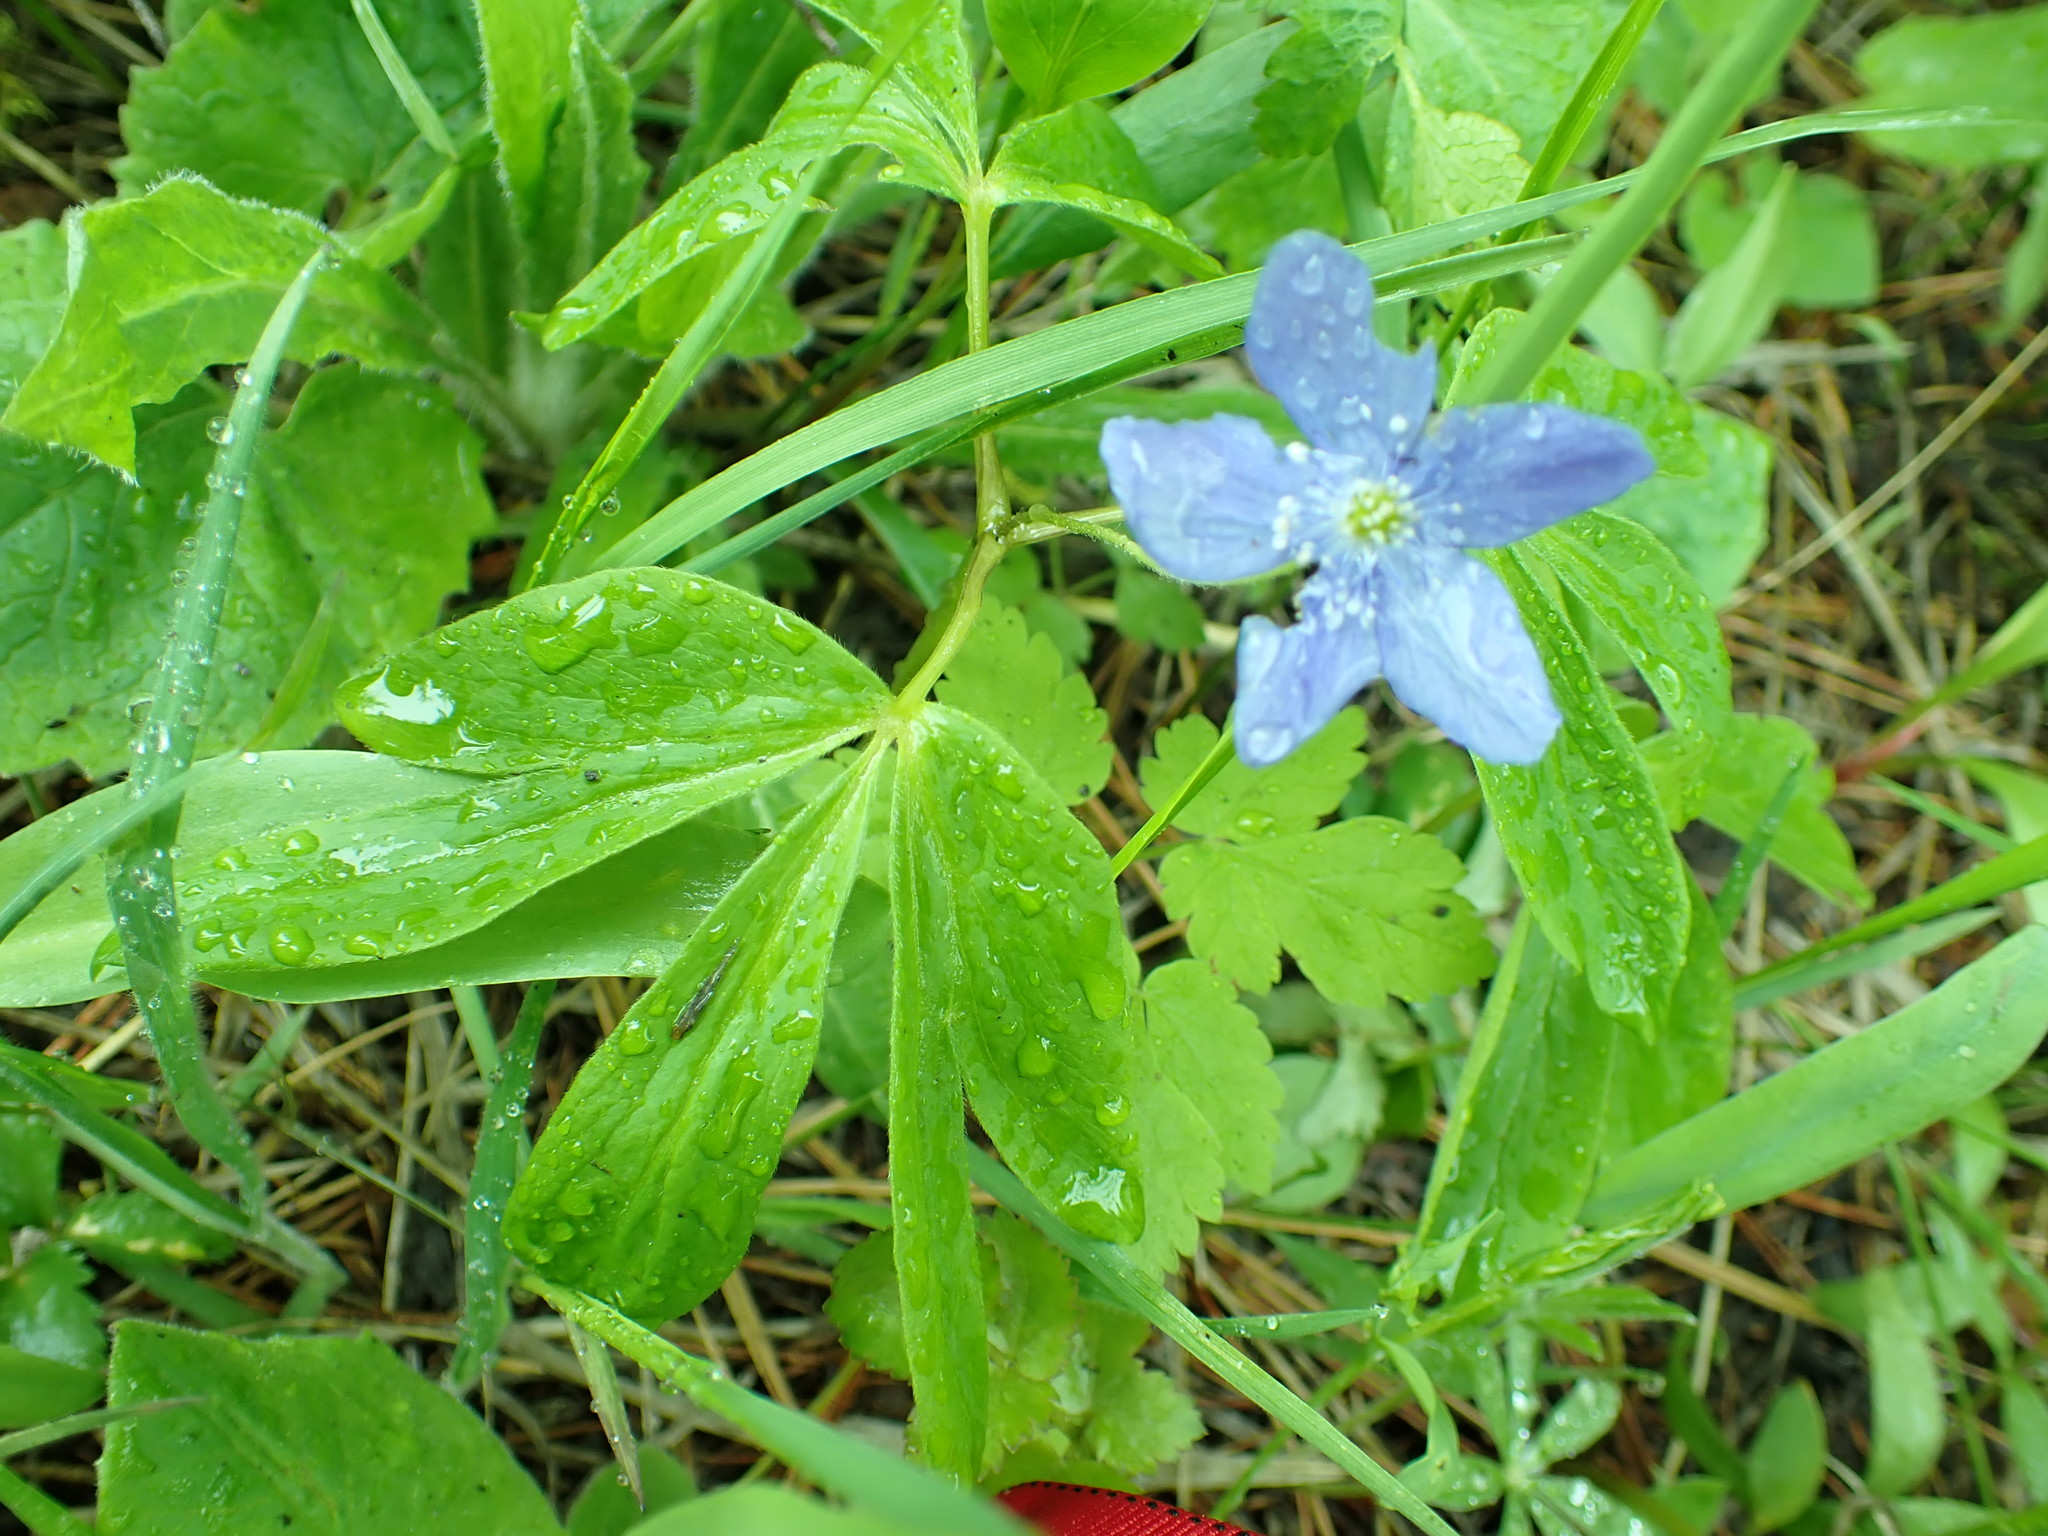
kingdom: Plantae
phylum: Tracheophyta
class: Magnoliopsida
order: Ranunculales
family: Ranunculaceae
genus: Anemone
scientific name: Anemone oregana
